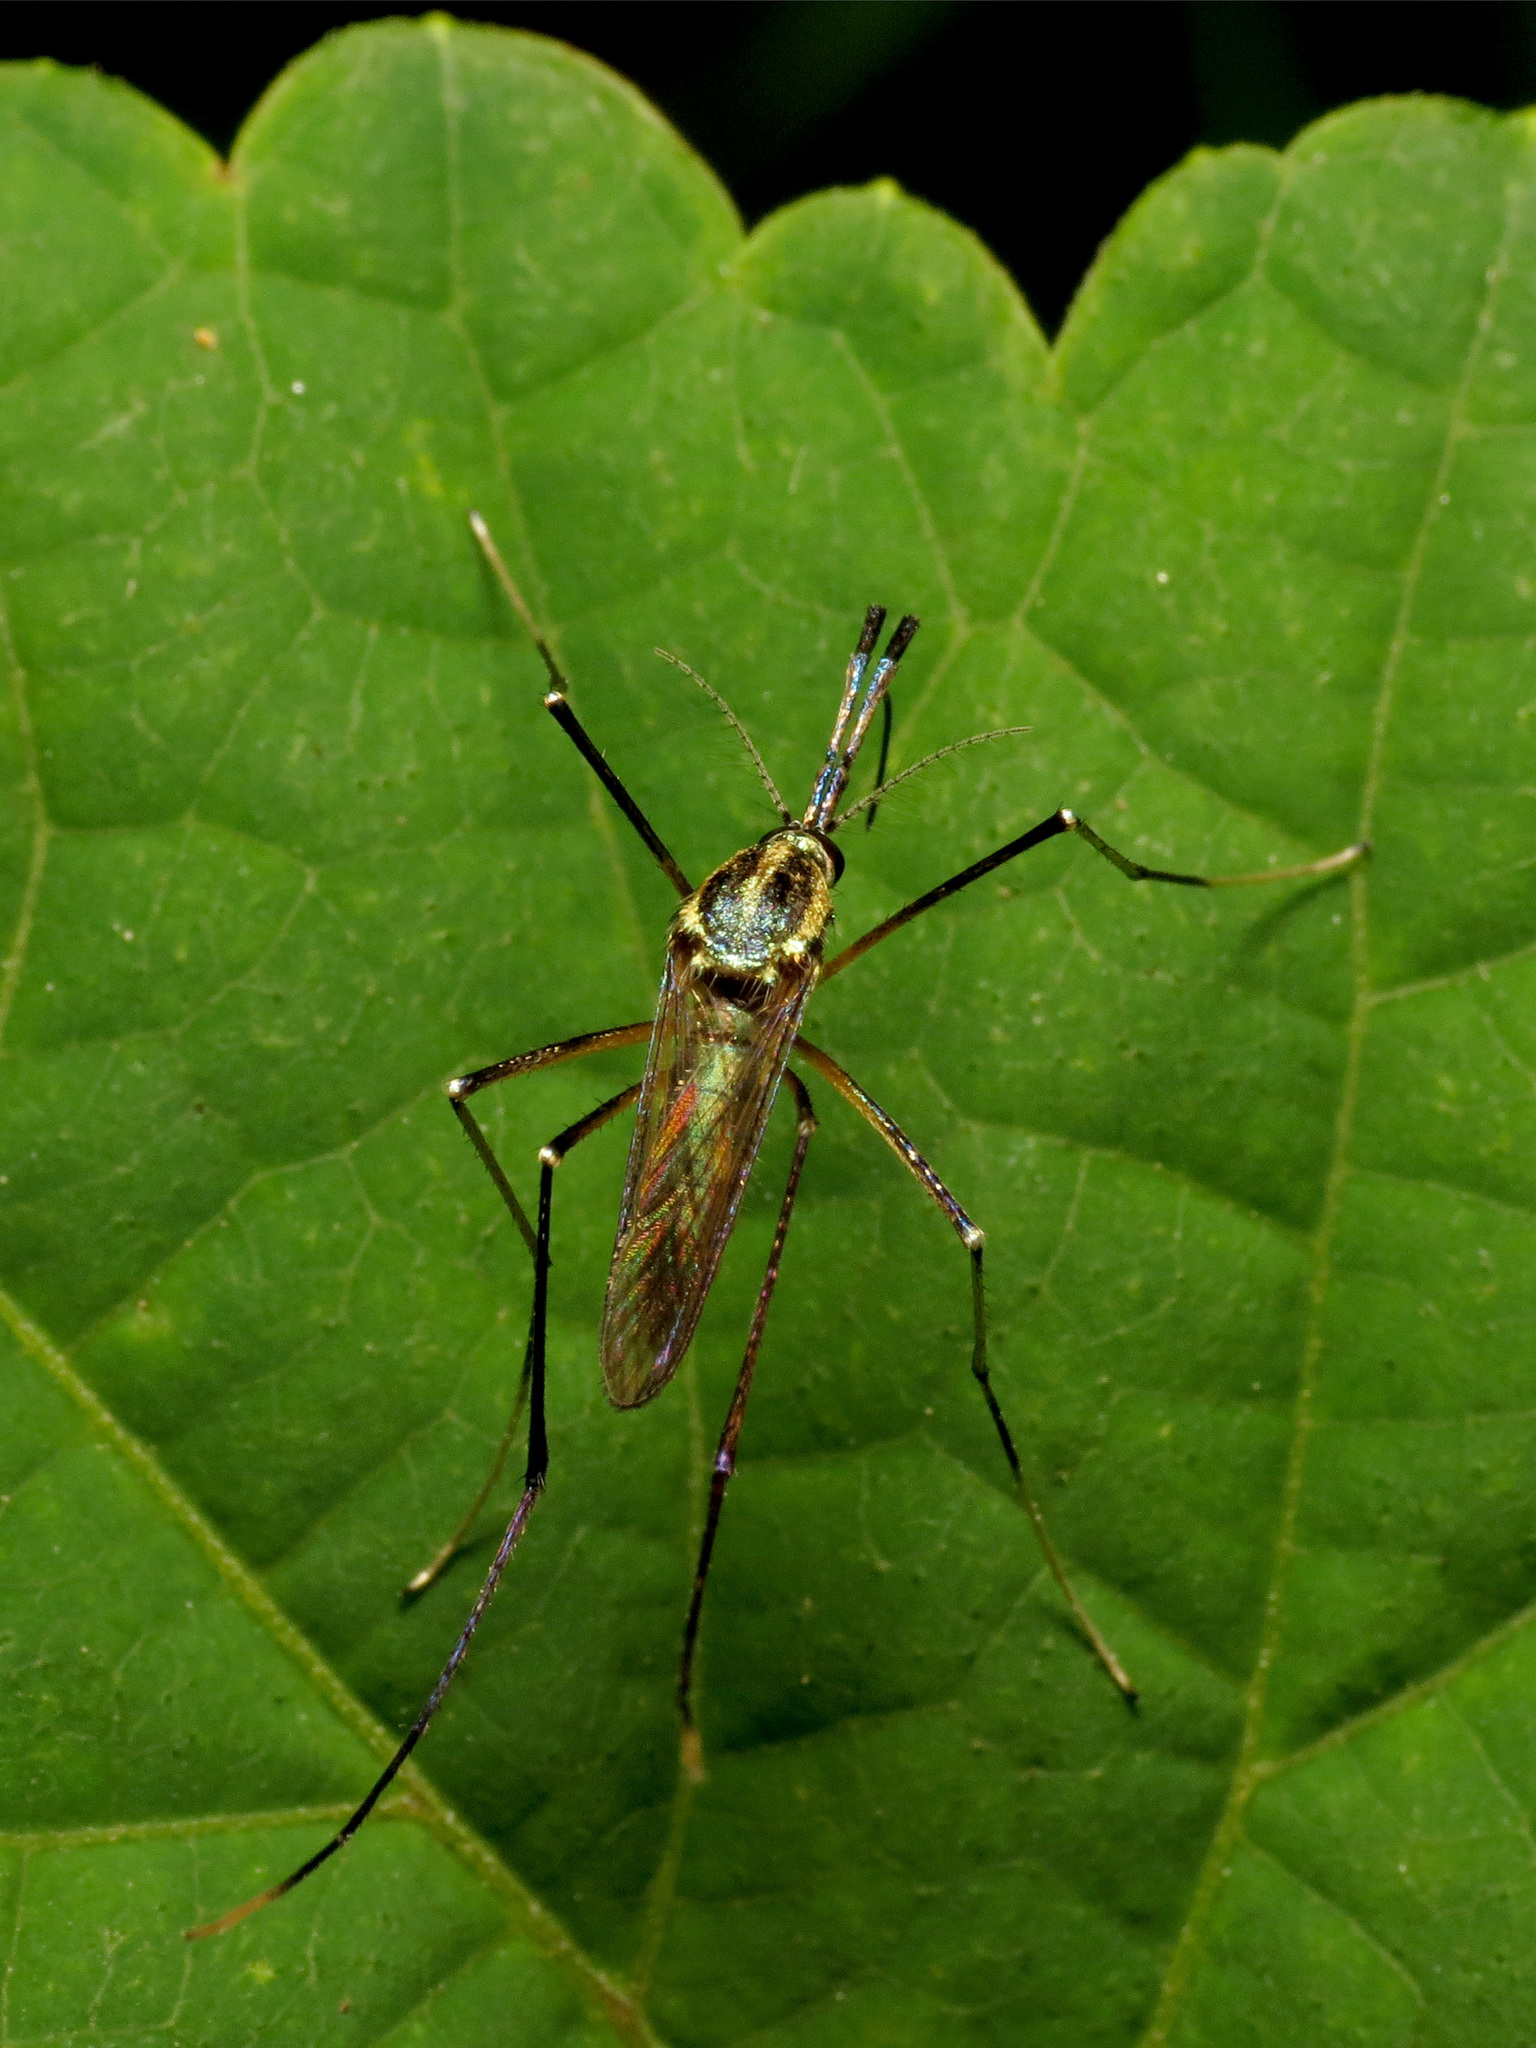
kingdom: Animalia
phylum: Arthropoda
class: Insecta
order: Diptera
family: Culicidae
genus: Toxorhynchites
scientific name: Toxorhynchites rutilus
